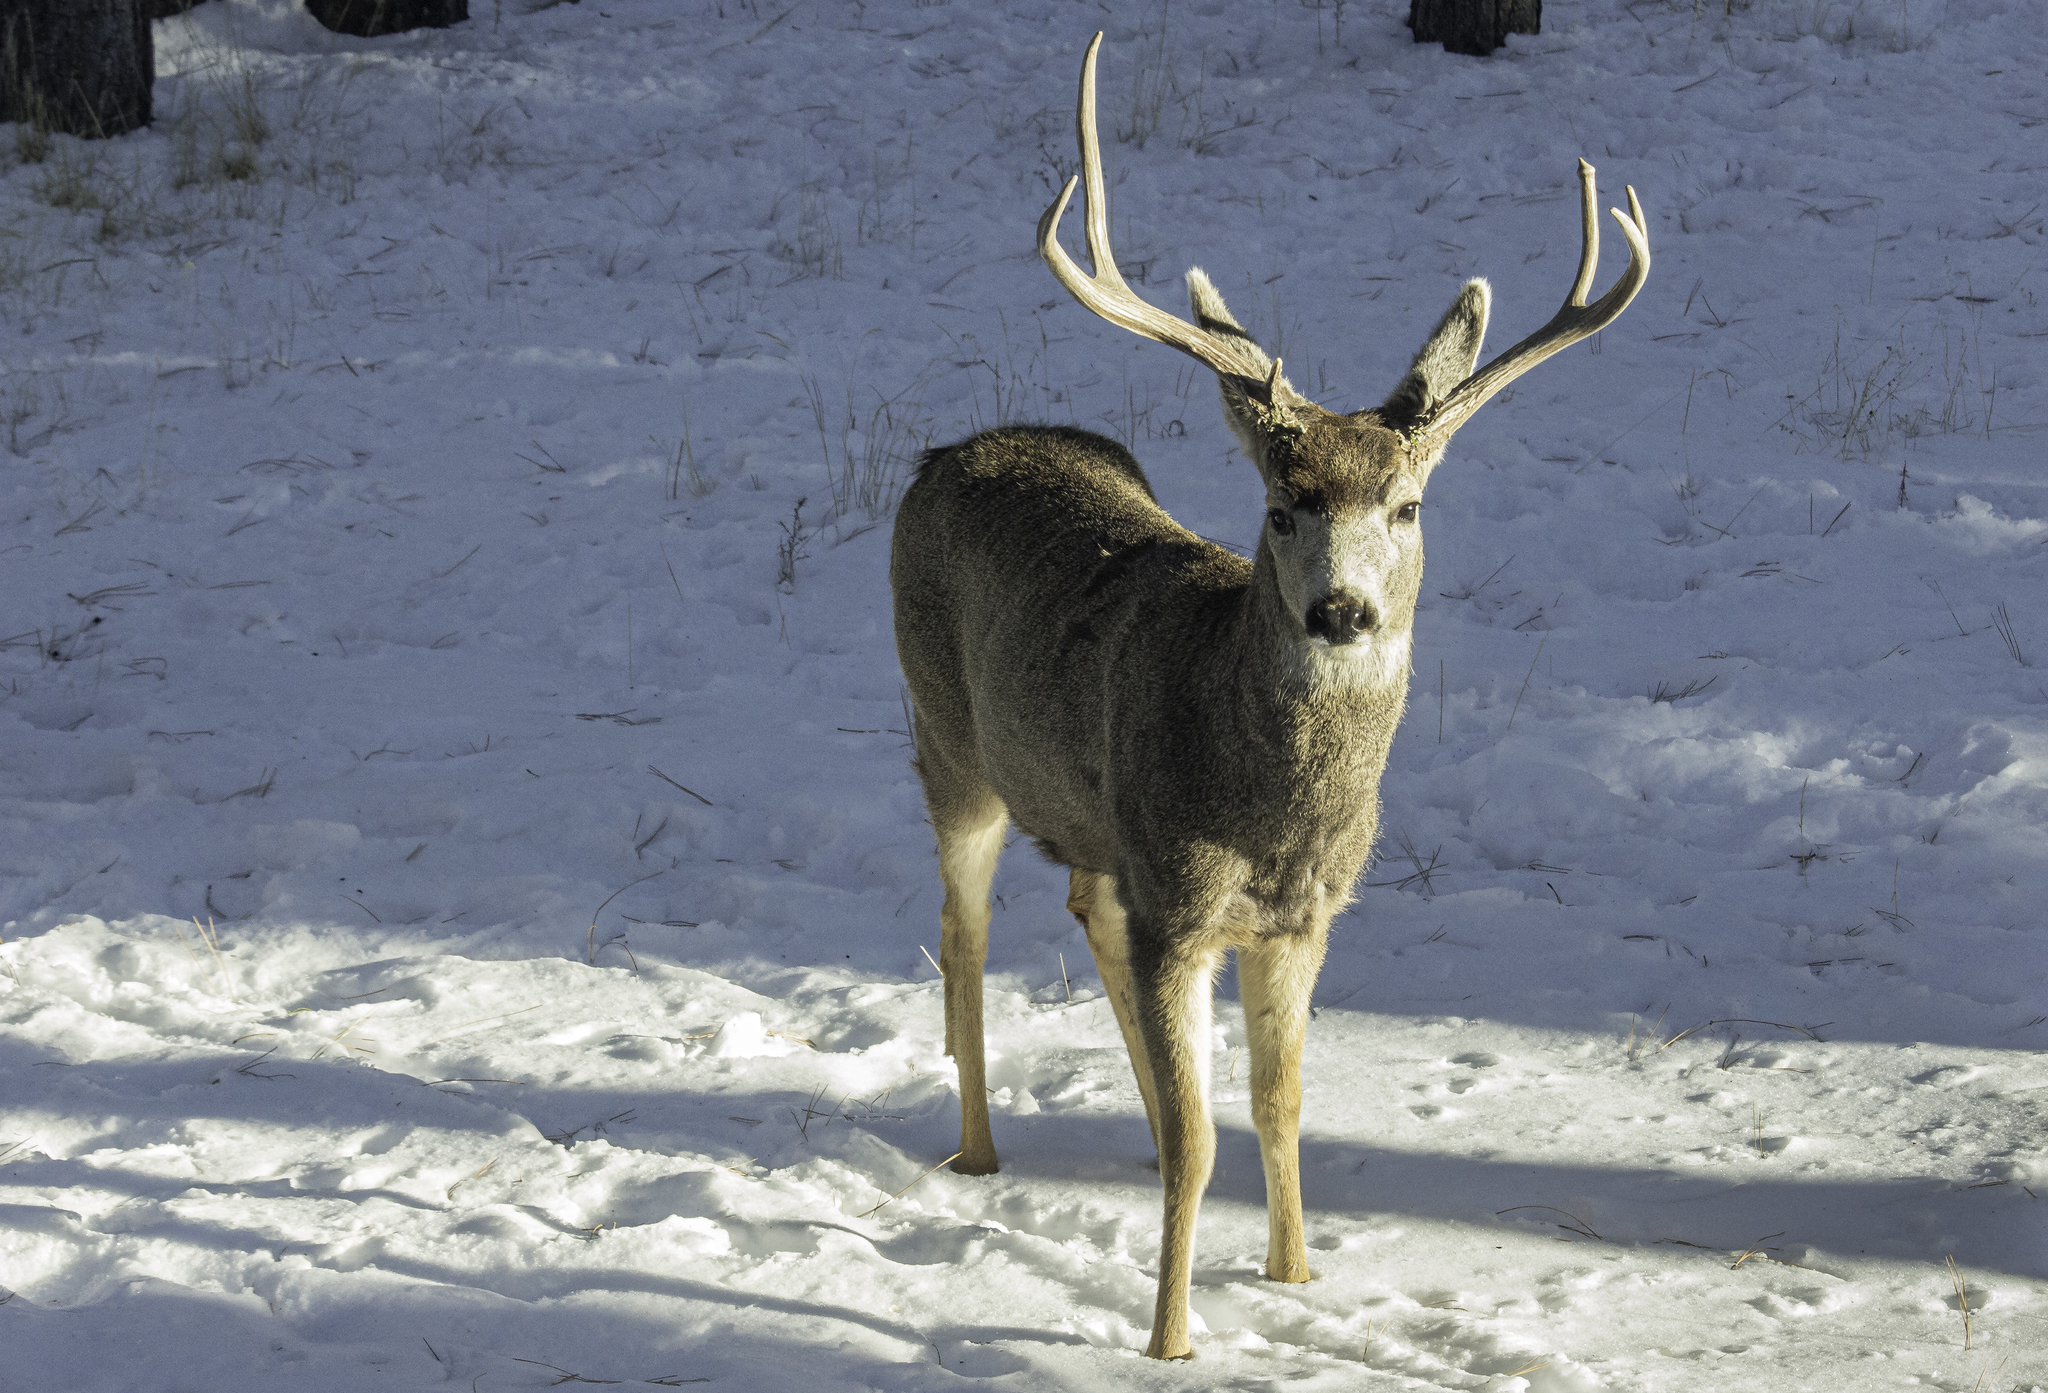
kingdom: Animalia
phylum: Chordata
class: Mammalia
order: Artiodactyla
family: Cervidae
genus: Odocoileus
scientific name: Odocoileus hemionus
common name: Mule deer
